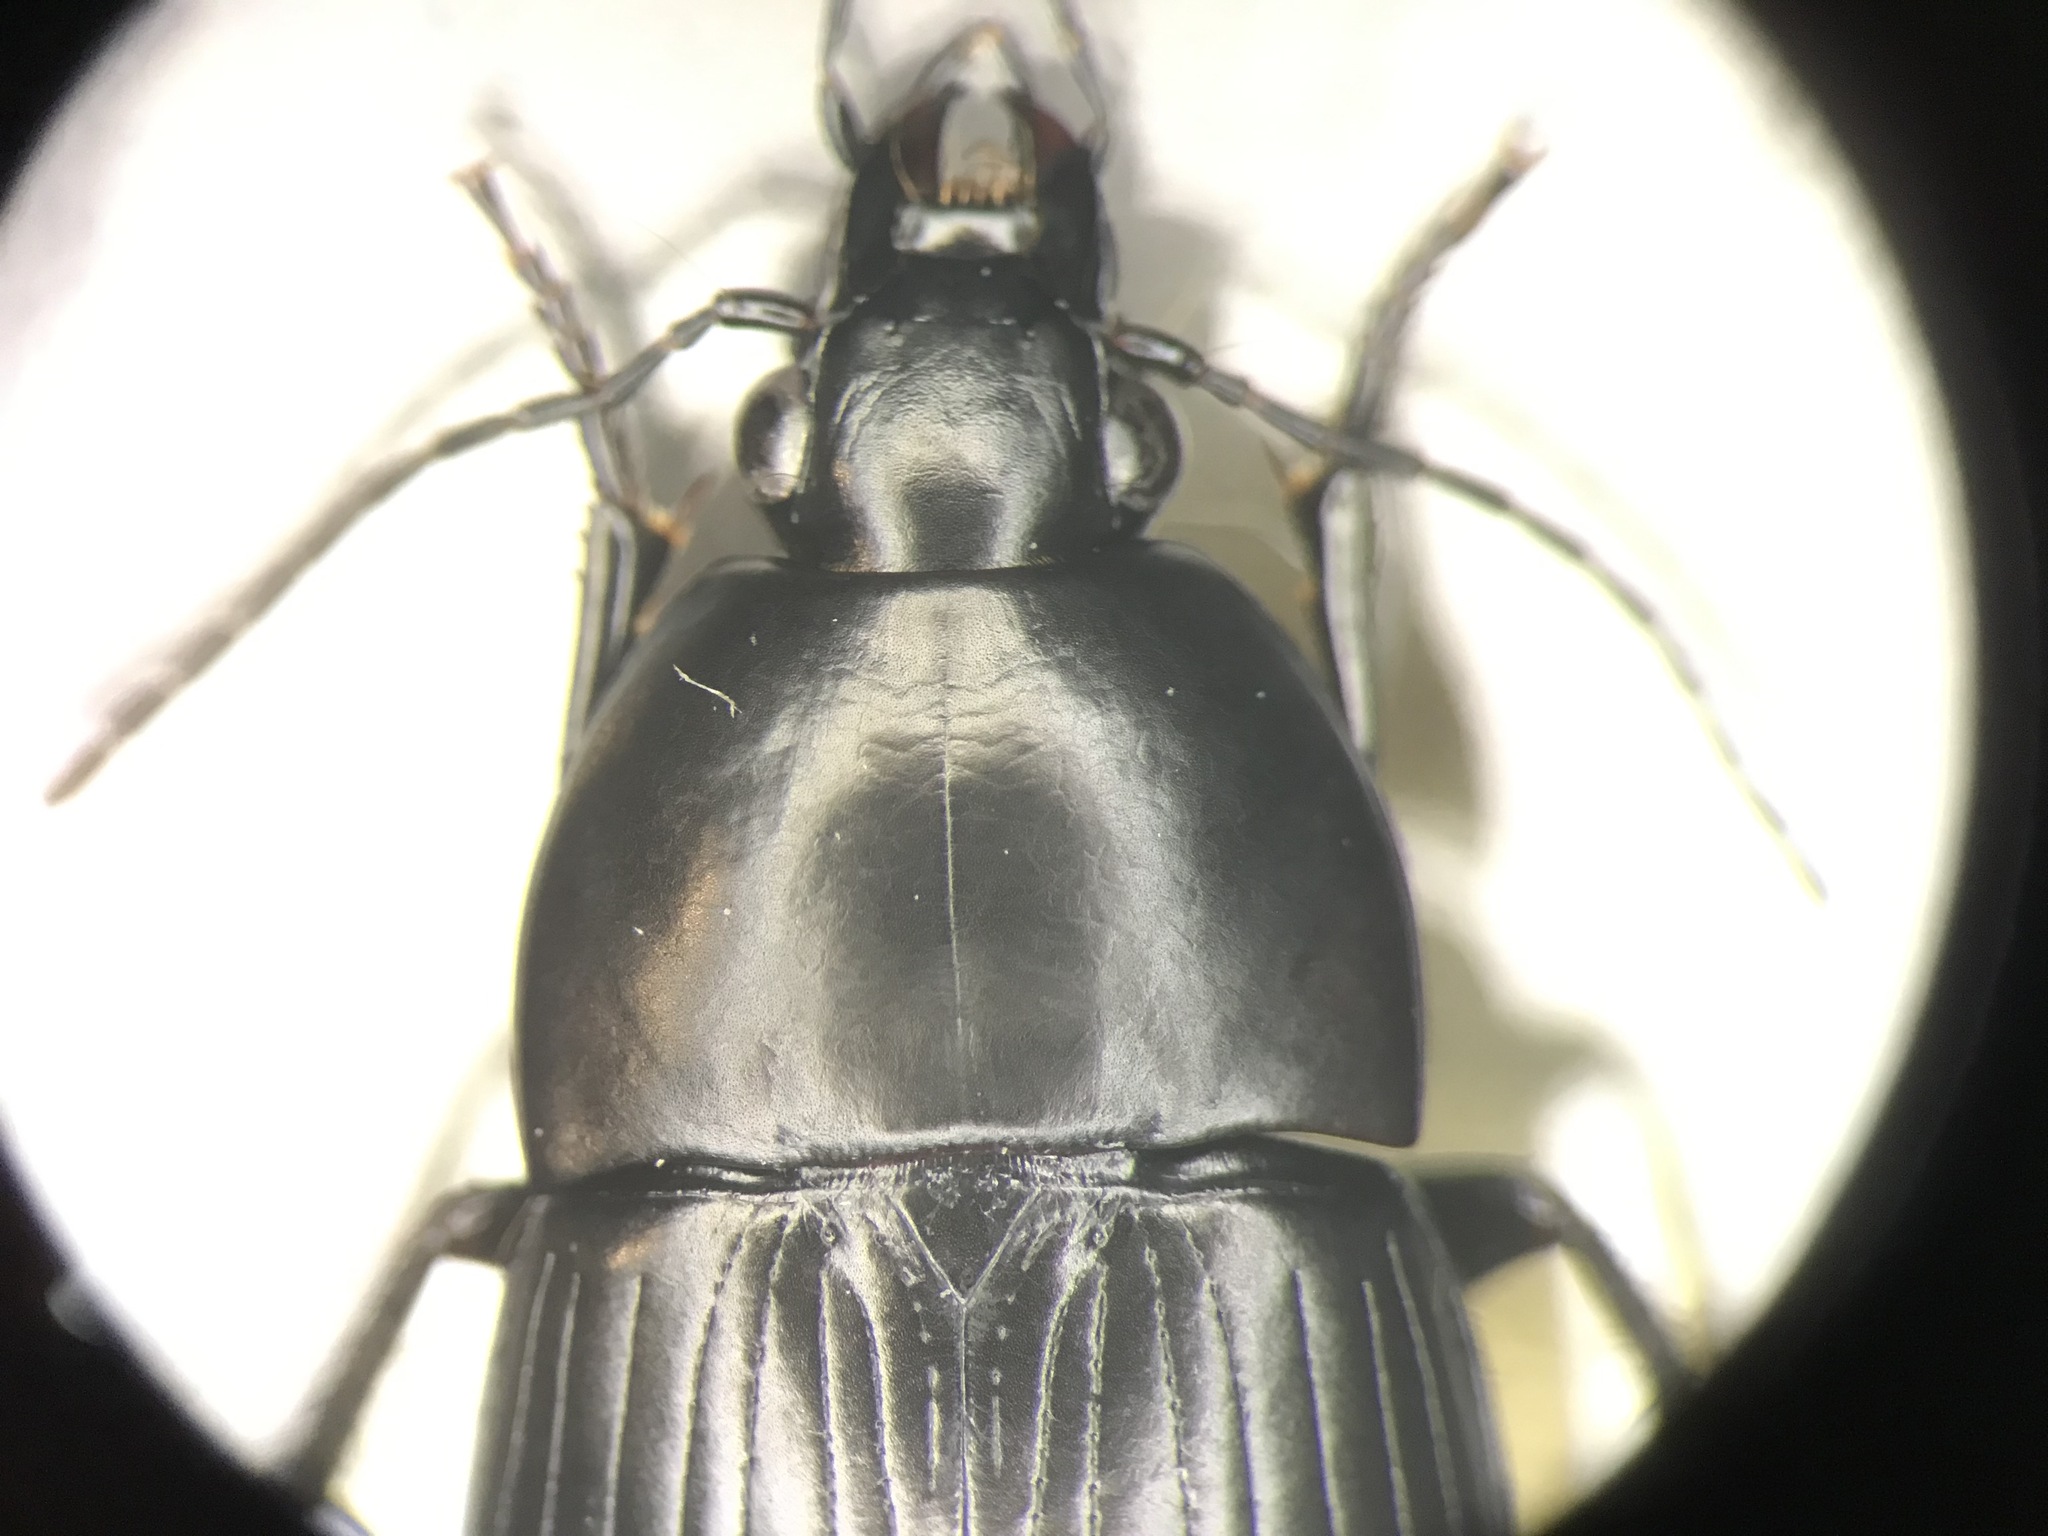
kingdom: Animalia
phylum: Arthropoda
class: Insecta
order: Coleoptera
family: Carabidae
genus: Oodes
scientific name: Oodes fluvialis
